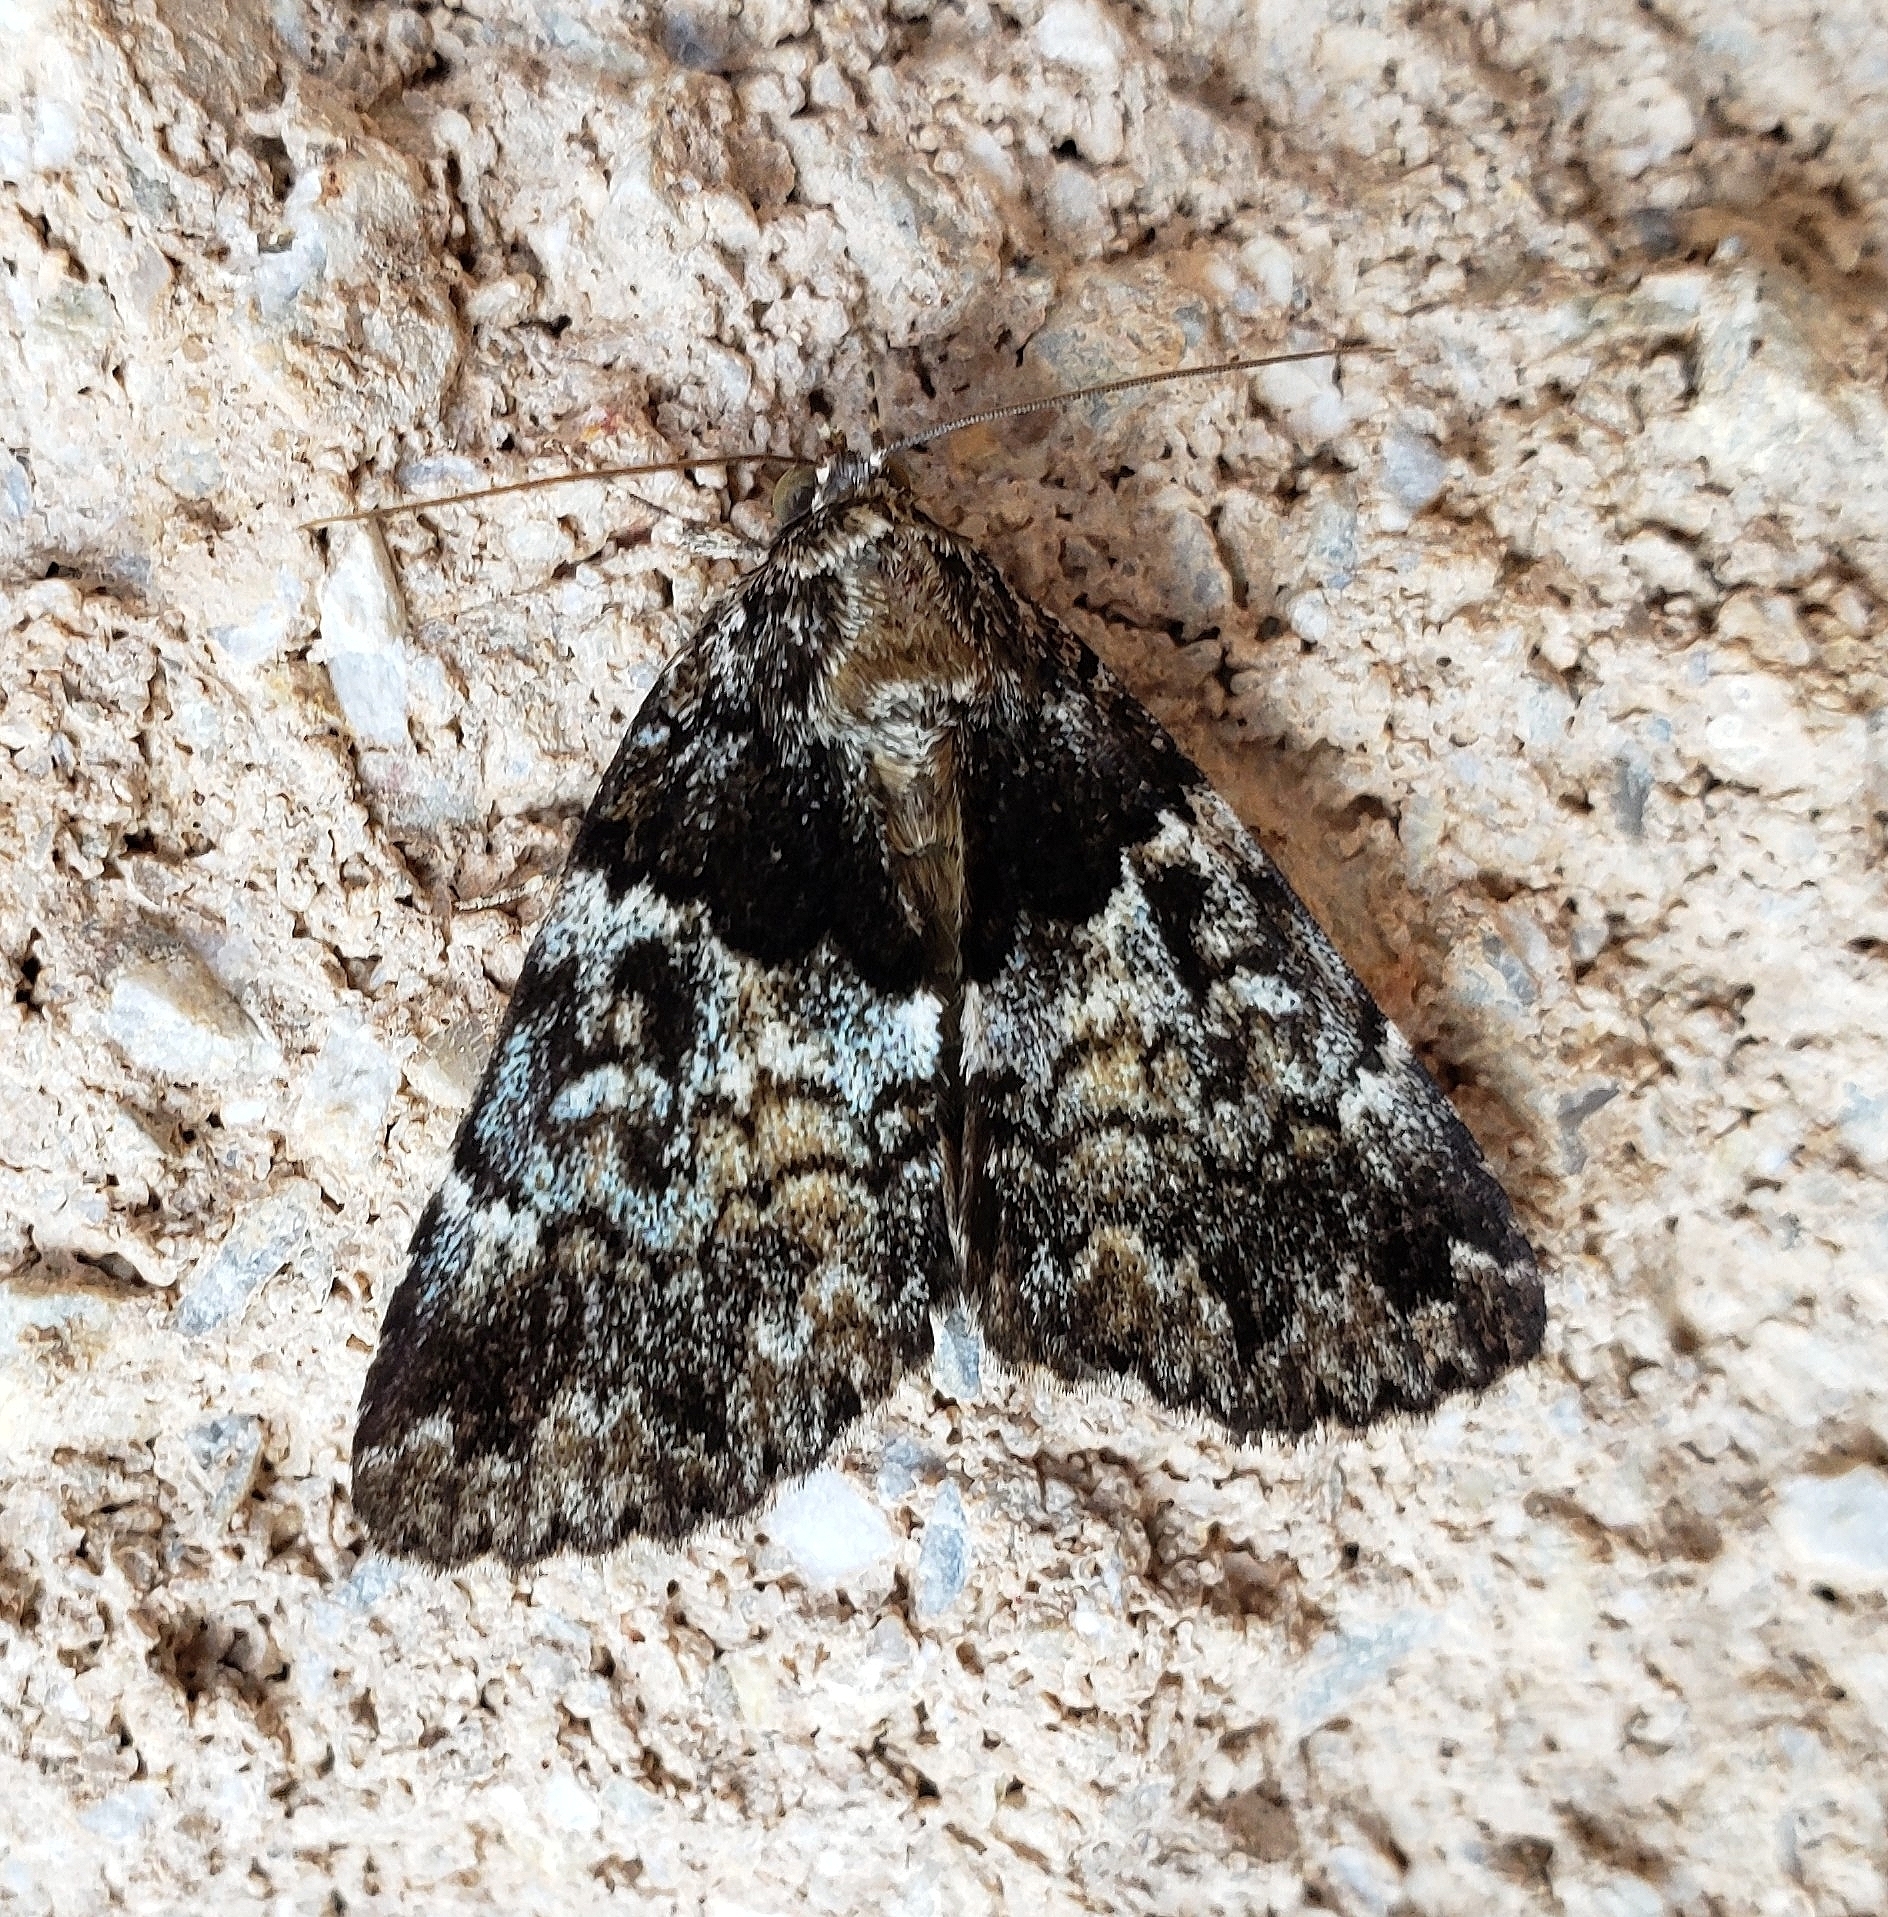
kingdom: Animalia
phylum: Arthropoda
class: Insecta
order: Lepidoptera
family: Erebidae
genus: Allotria
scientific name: Allotria elonympha
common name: False underwing
